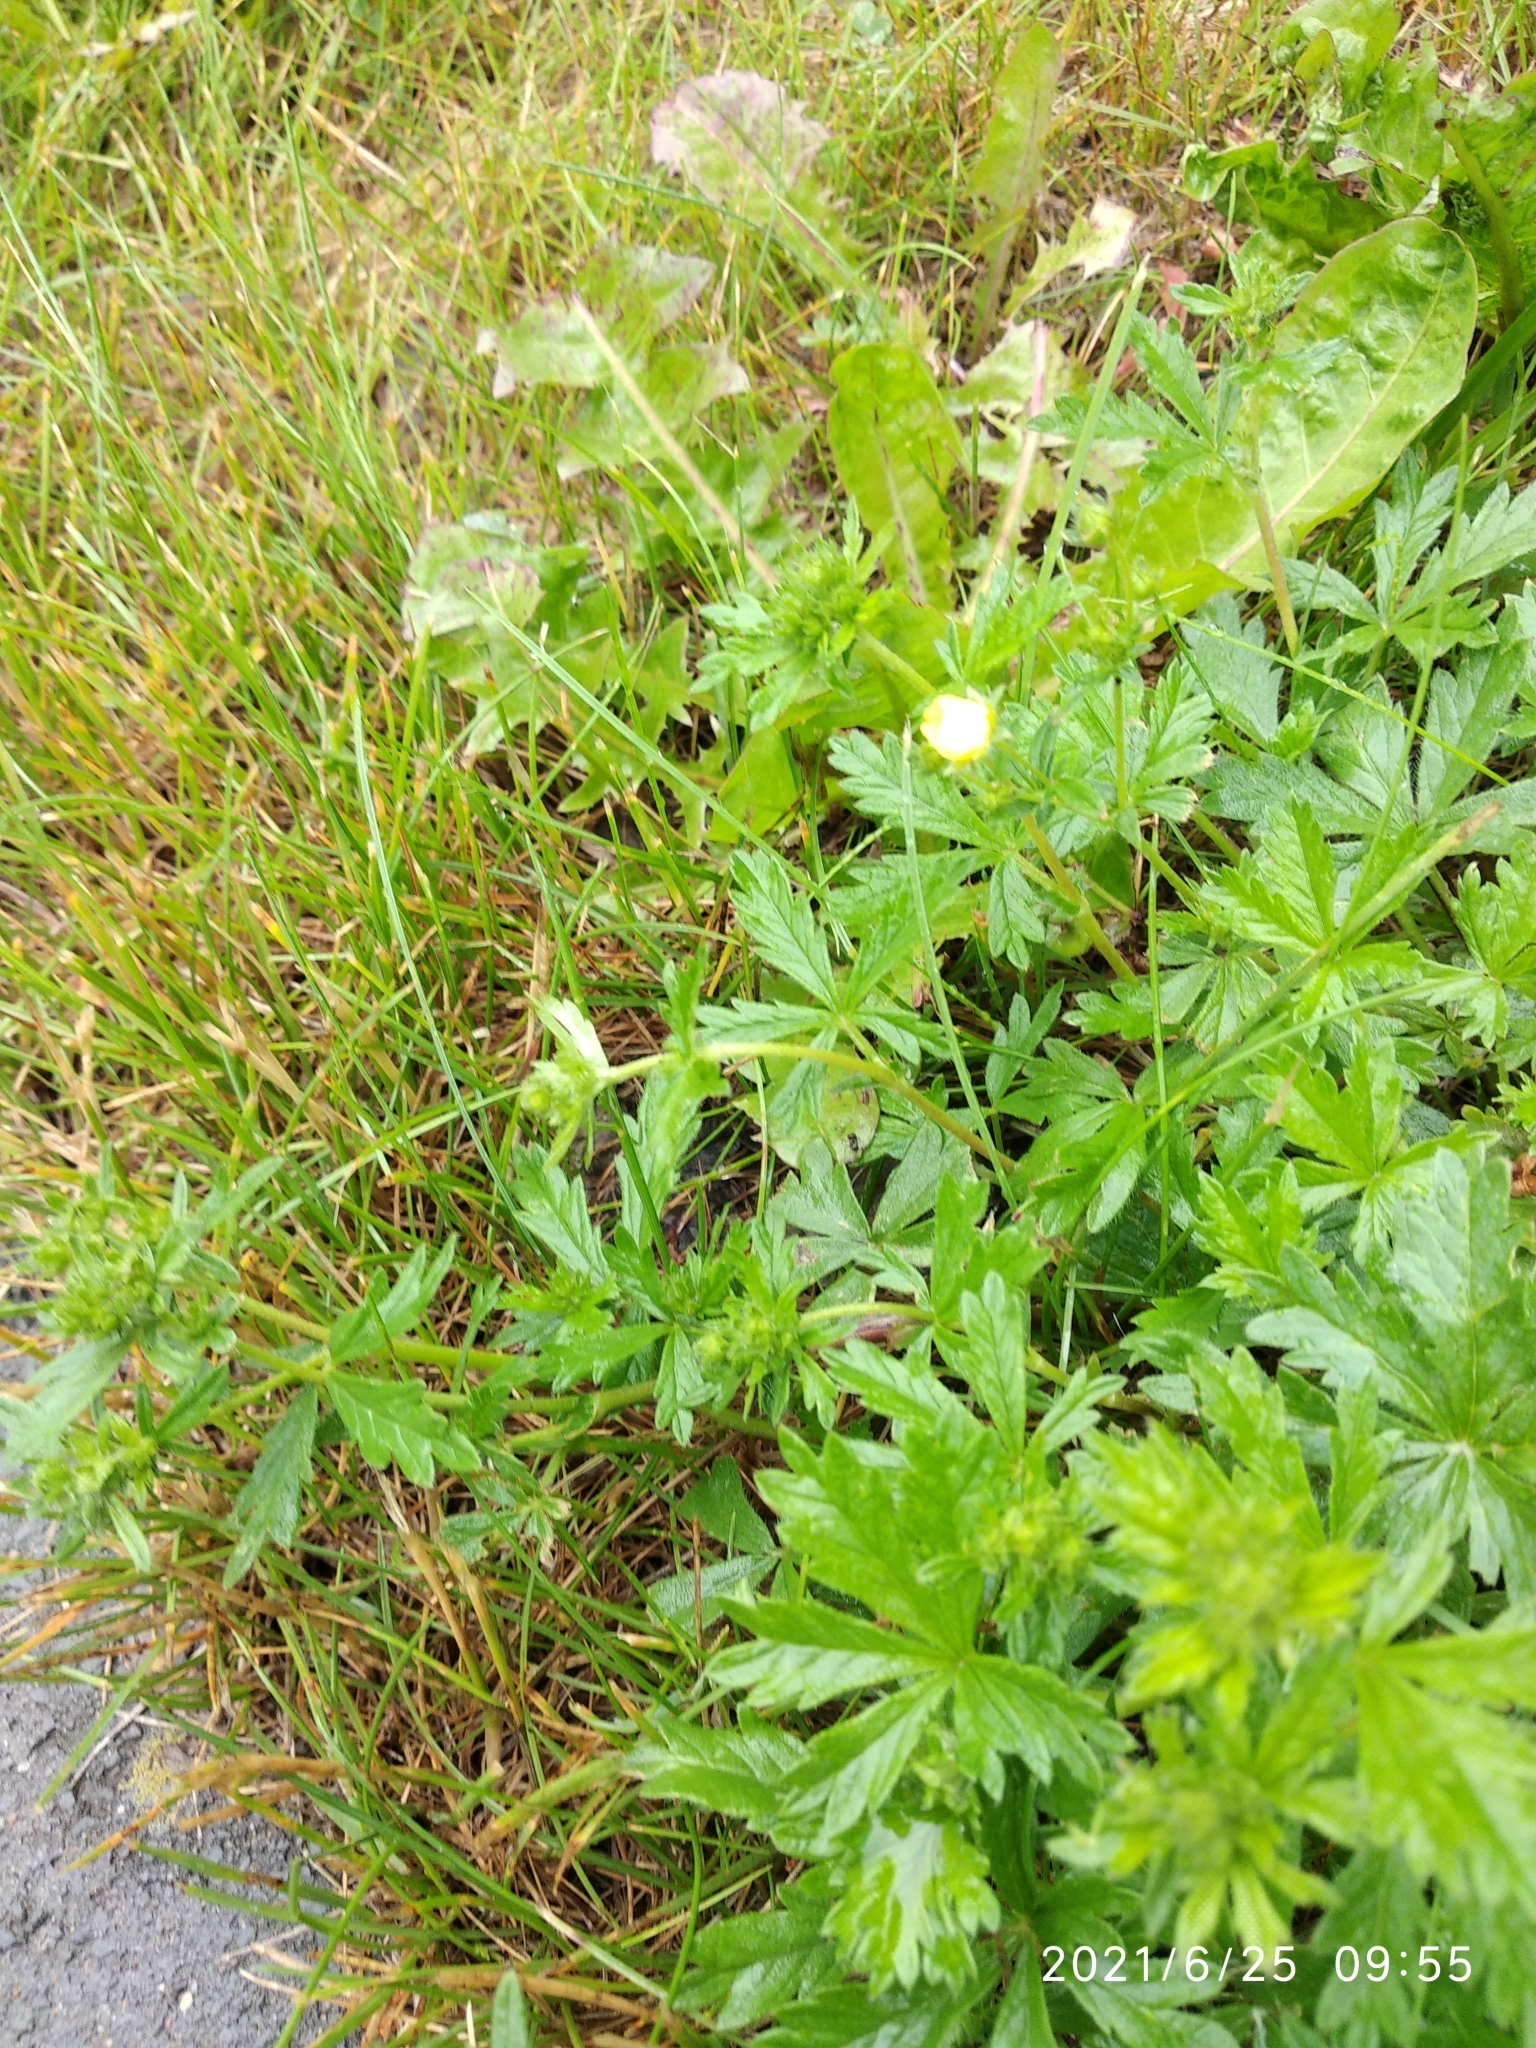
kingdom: Plantae
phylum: Tracheophyta
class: Magnoliopsida
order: Rosales
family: Rosaceae
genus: Potentilla
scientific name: Potentilla argentea
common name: Hoary cinquefoil
